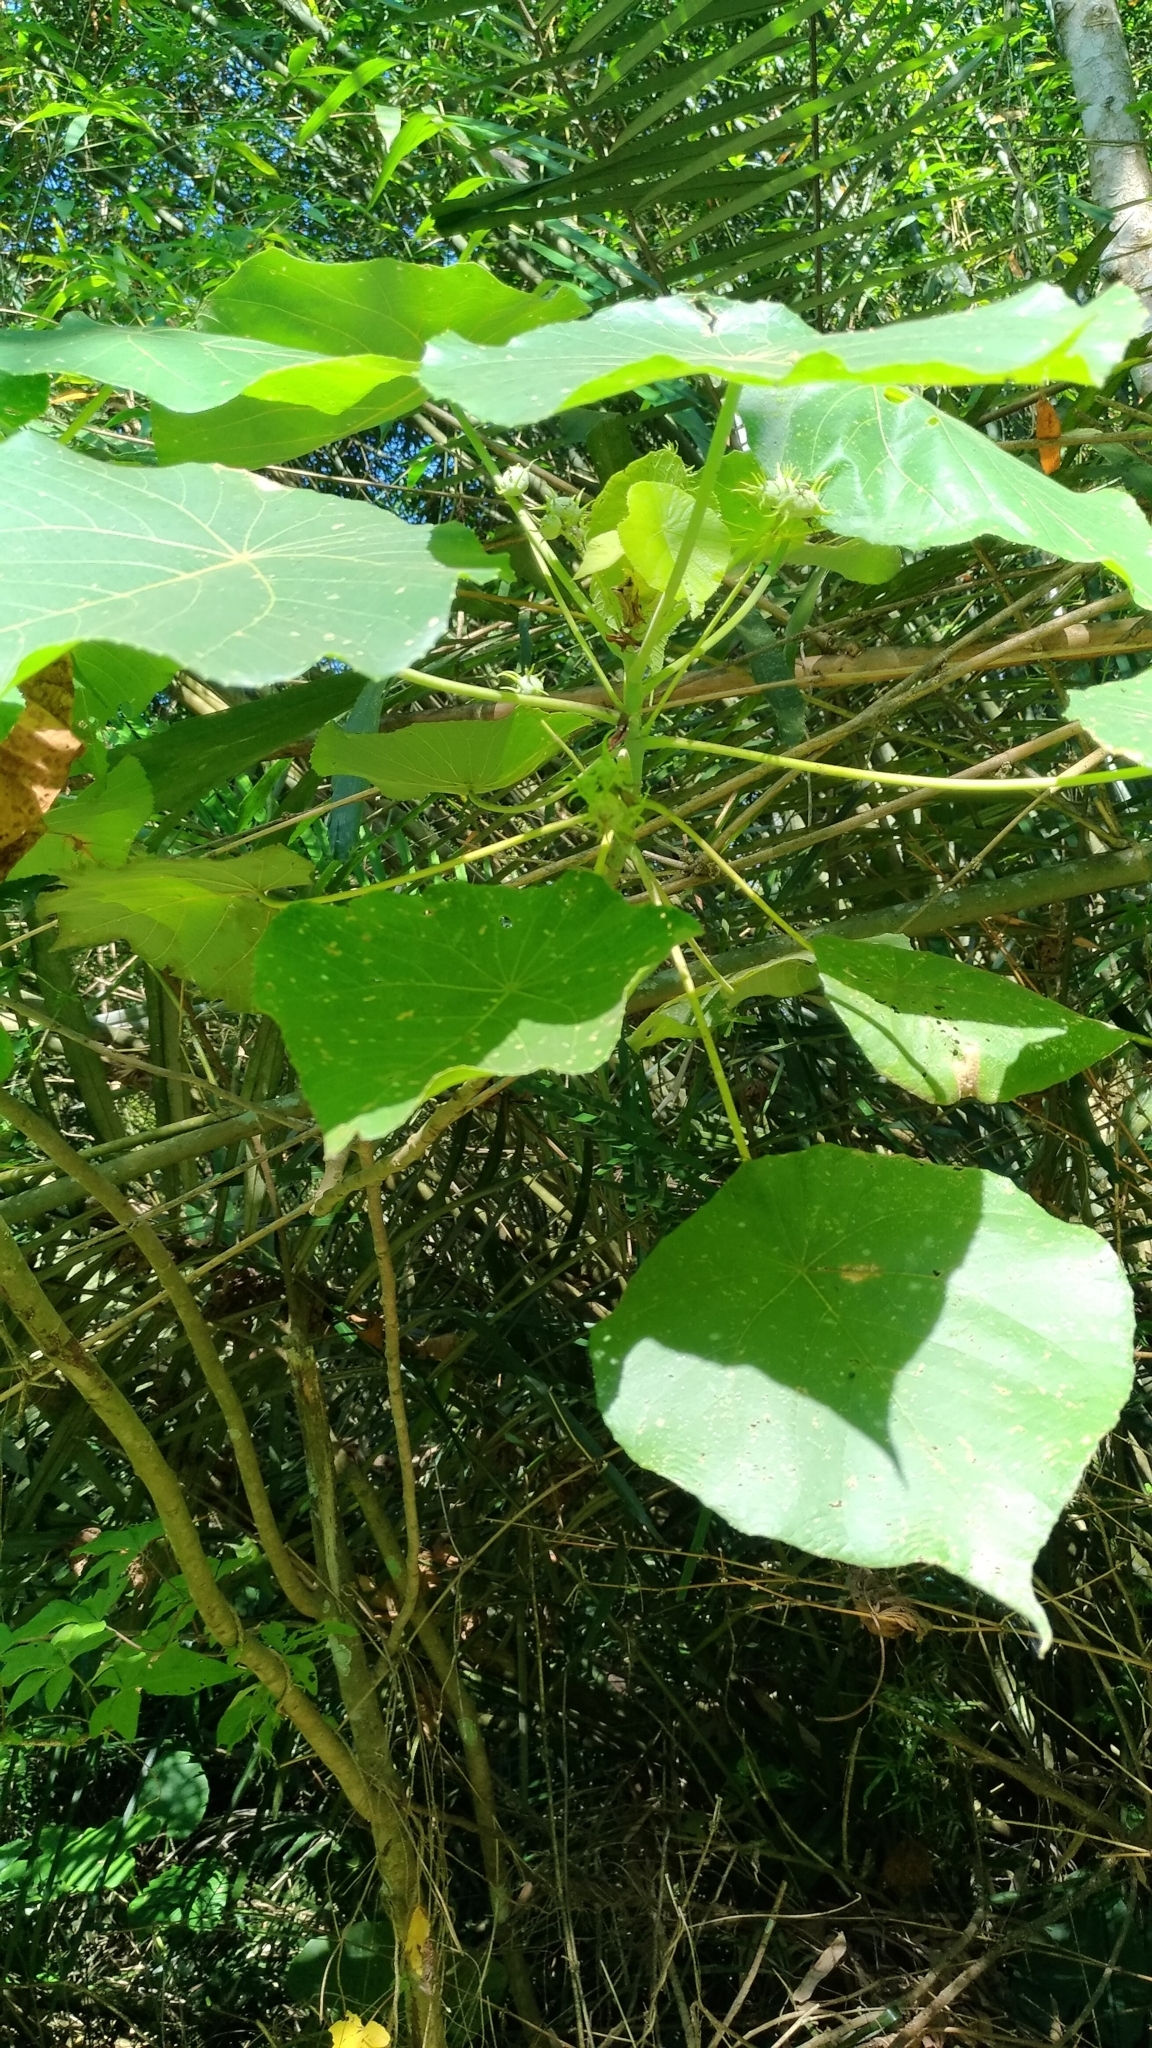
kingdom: Plantae
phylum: Tracheophyta
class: Magnoliopsida
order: Malpighiales
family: Euphorbiaceae
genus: Macaranga
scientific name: Macaranga tanarius
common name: Parasol leaf tree
